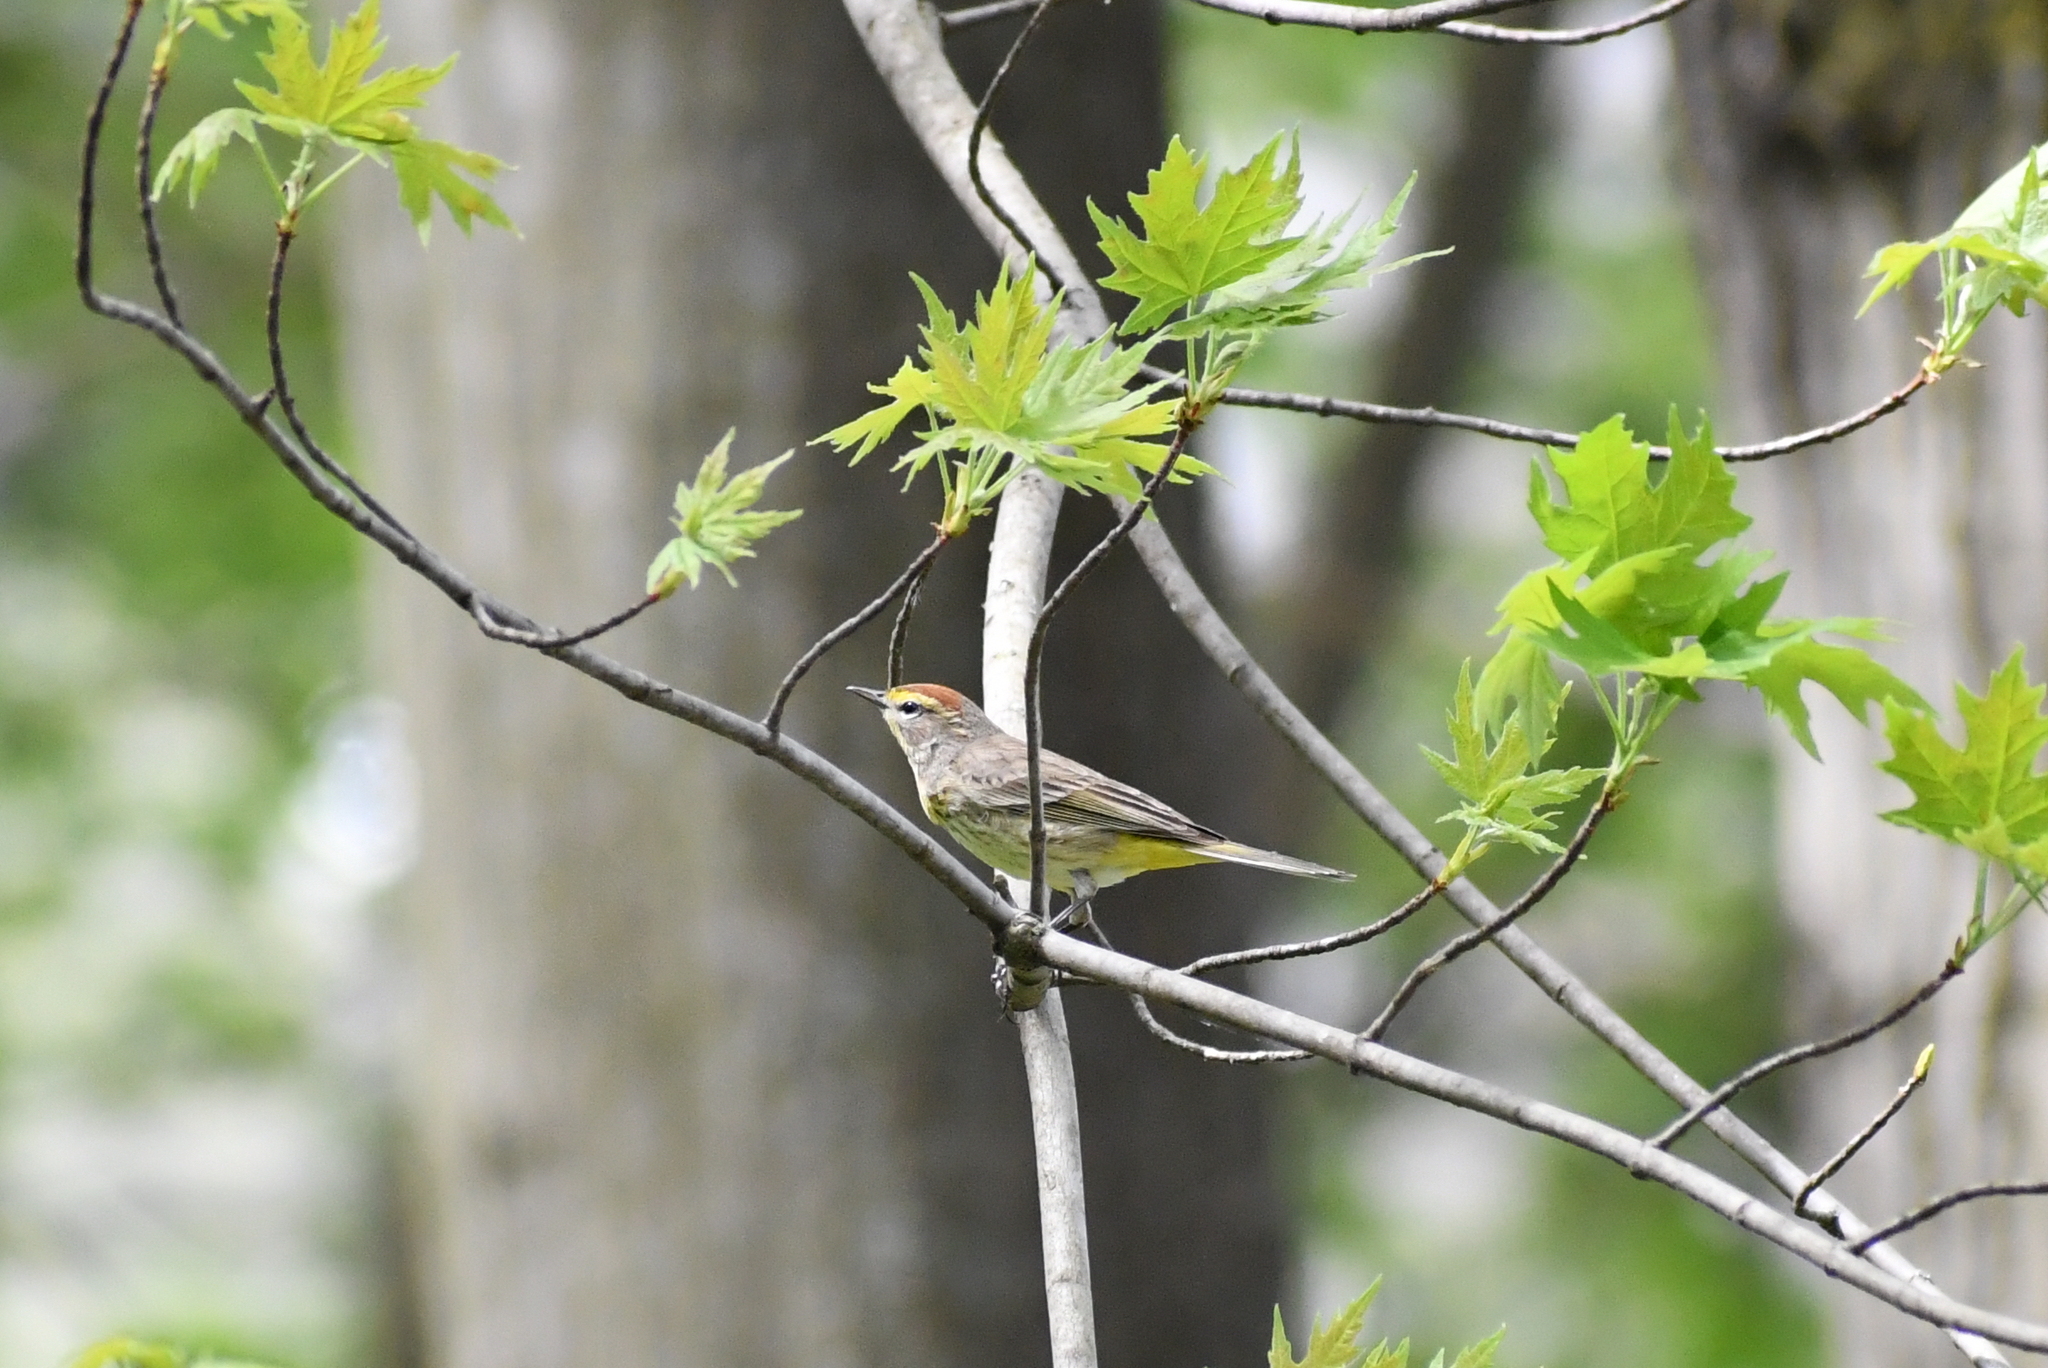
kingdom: Animalia
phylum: Chordata
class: Aves
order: Passeriformes
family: Parulidae
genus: Setophaga
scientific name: Setophaga palmarum
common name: Palm warbler
